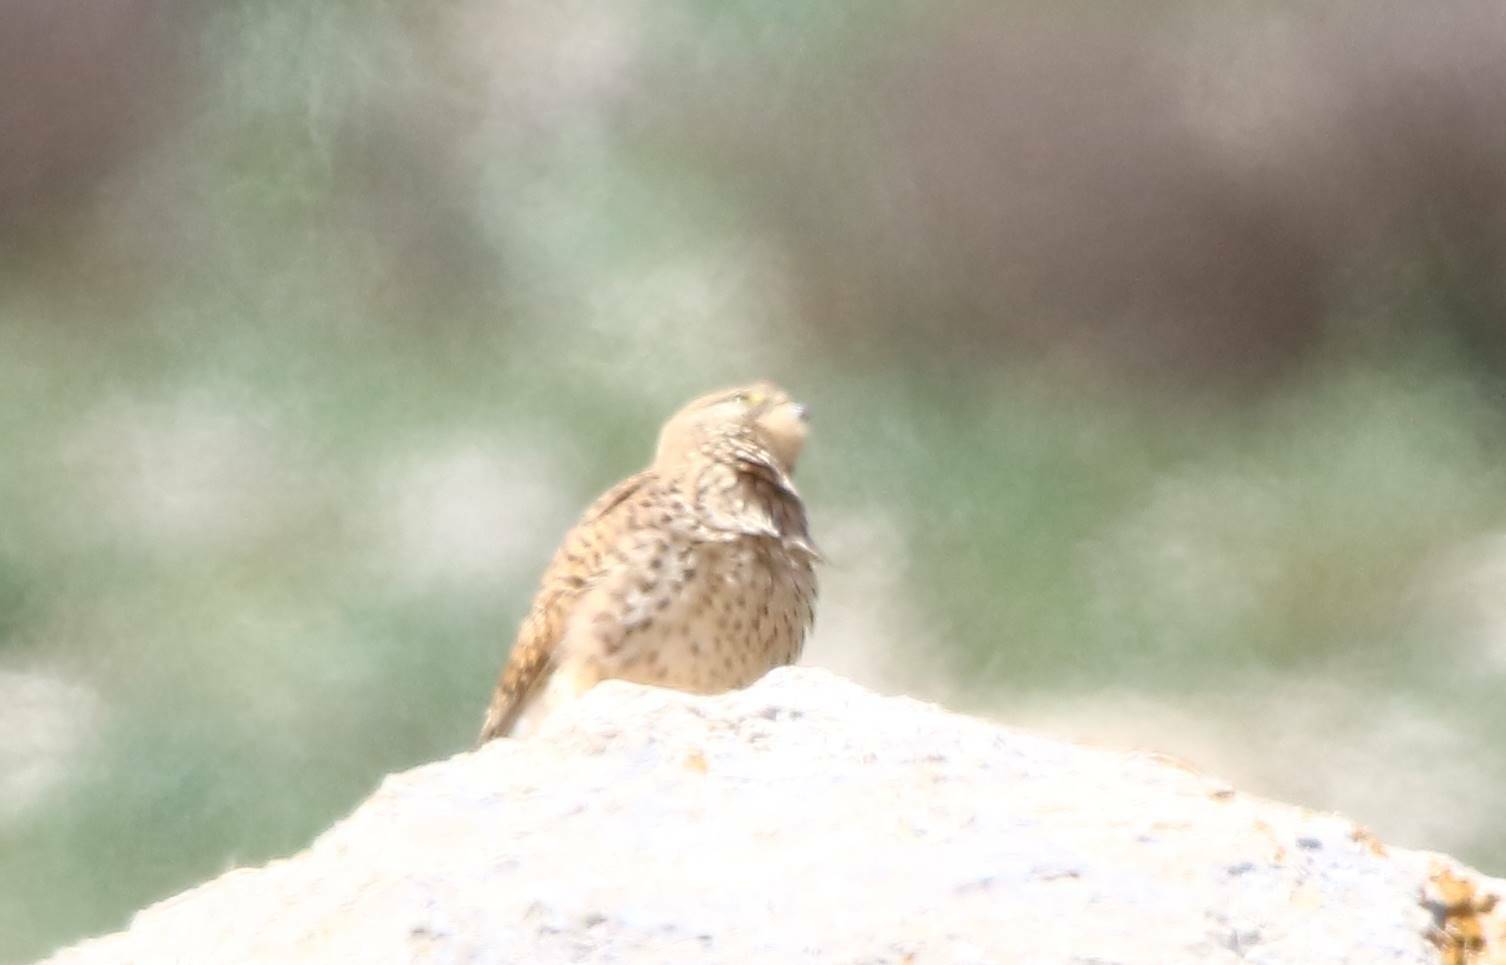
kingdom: Animalia
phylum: Chordata
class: Aves
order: Falconiformes
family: Falconidae
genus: Falco
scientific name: Falco tinnunculus
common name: Common kestrel
